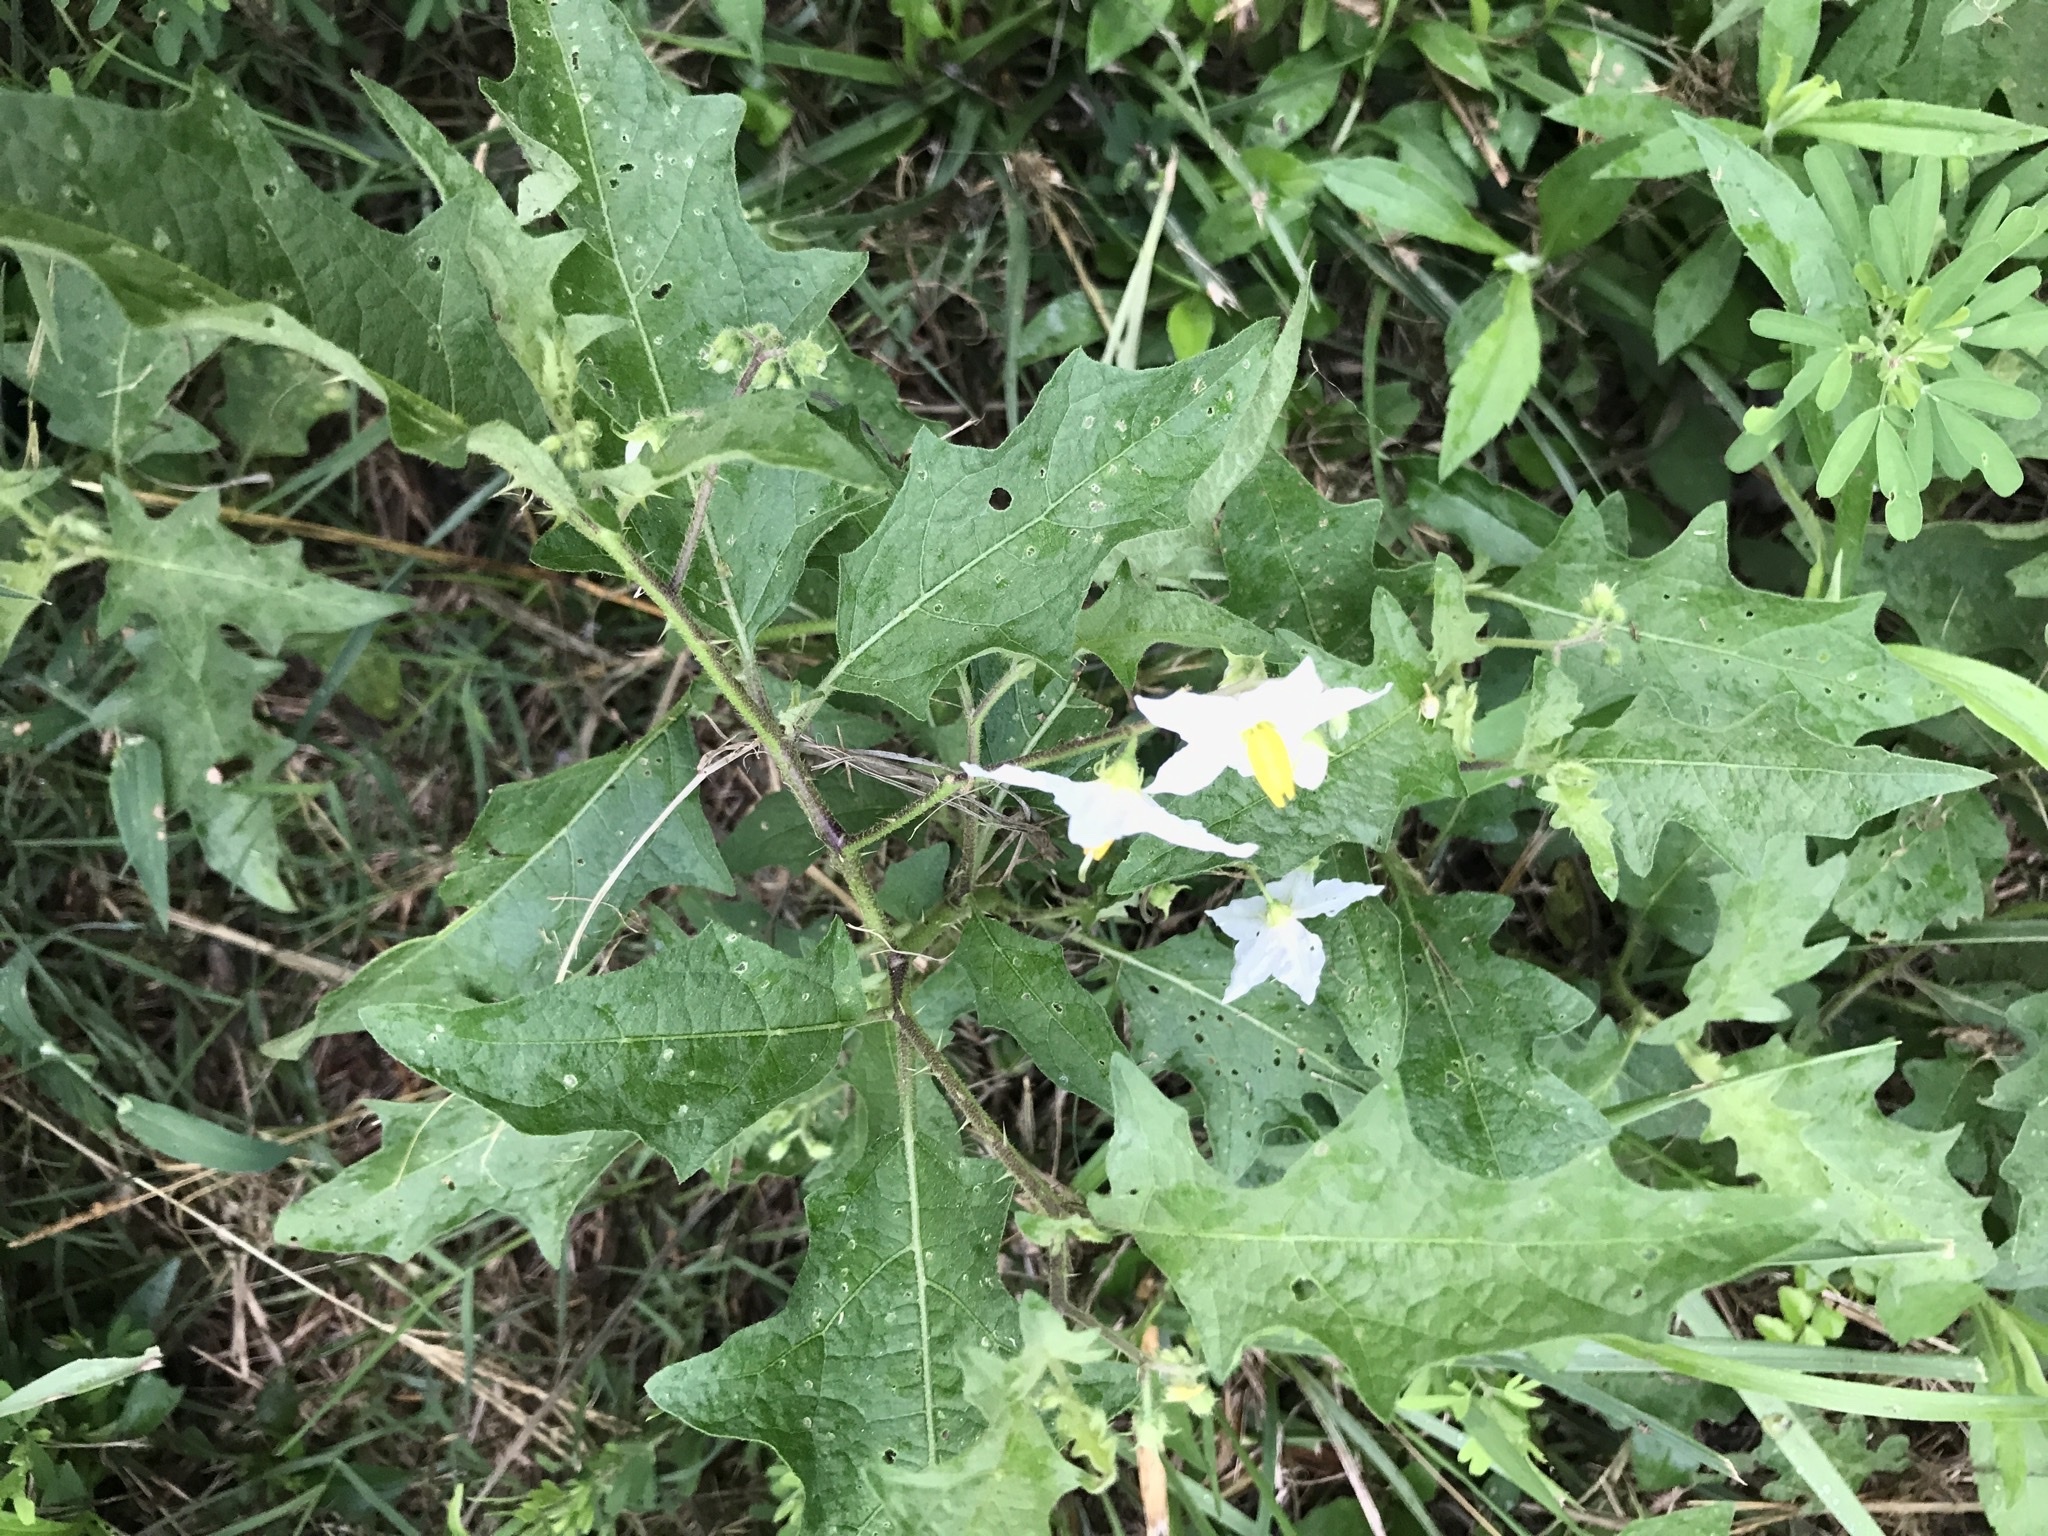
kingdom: Plantae
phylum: Tracheophyta
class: Magnoliopsida
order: Solanales
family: Solanaceae
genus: Solanum
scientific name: Solanum carolinense
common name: Horse-nettle
